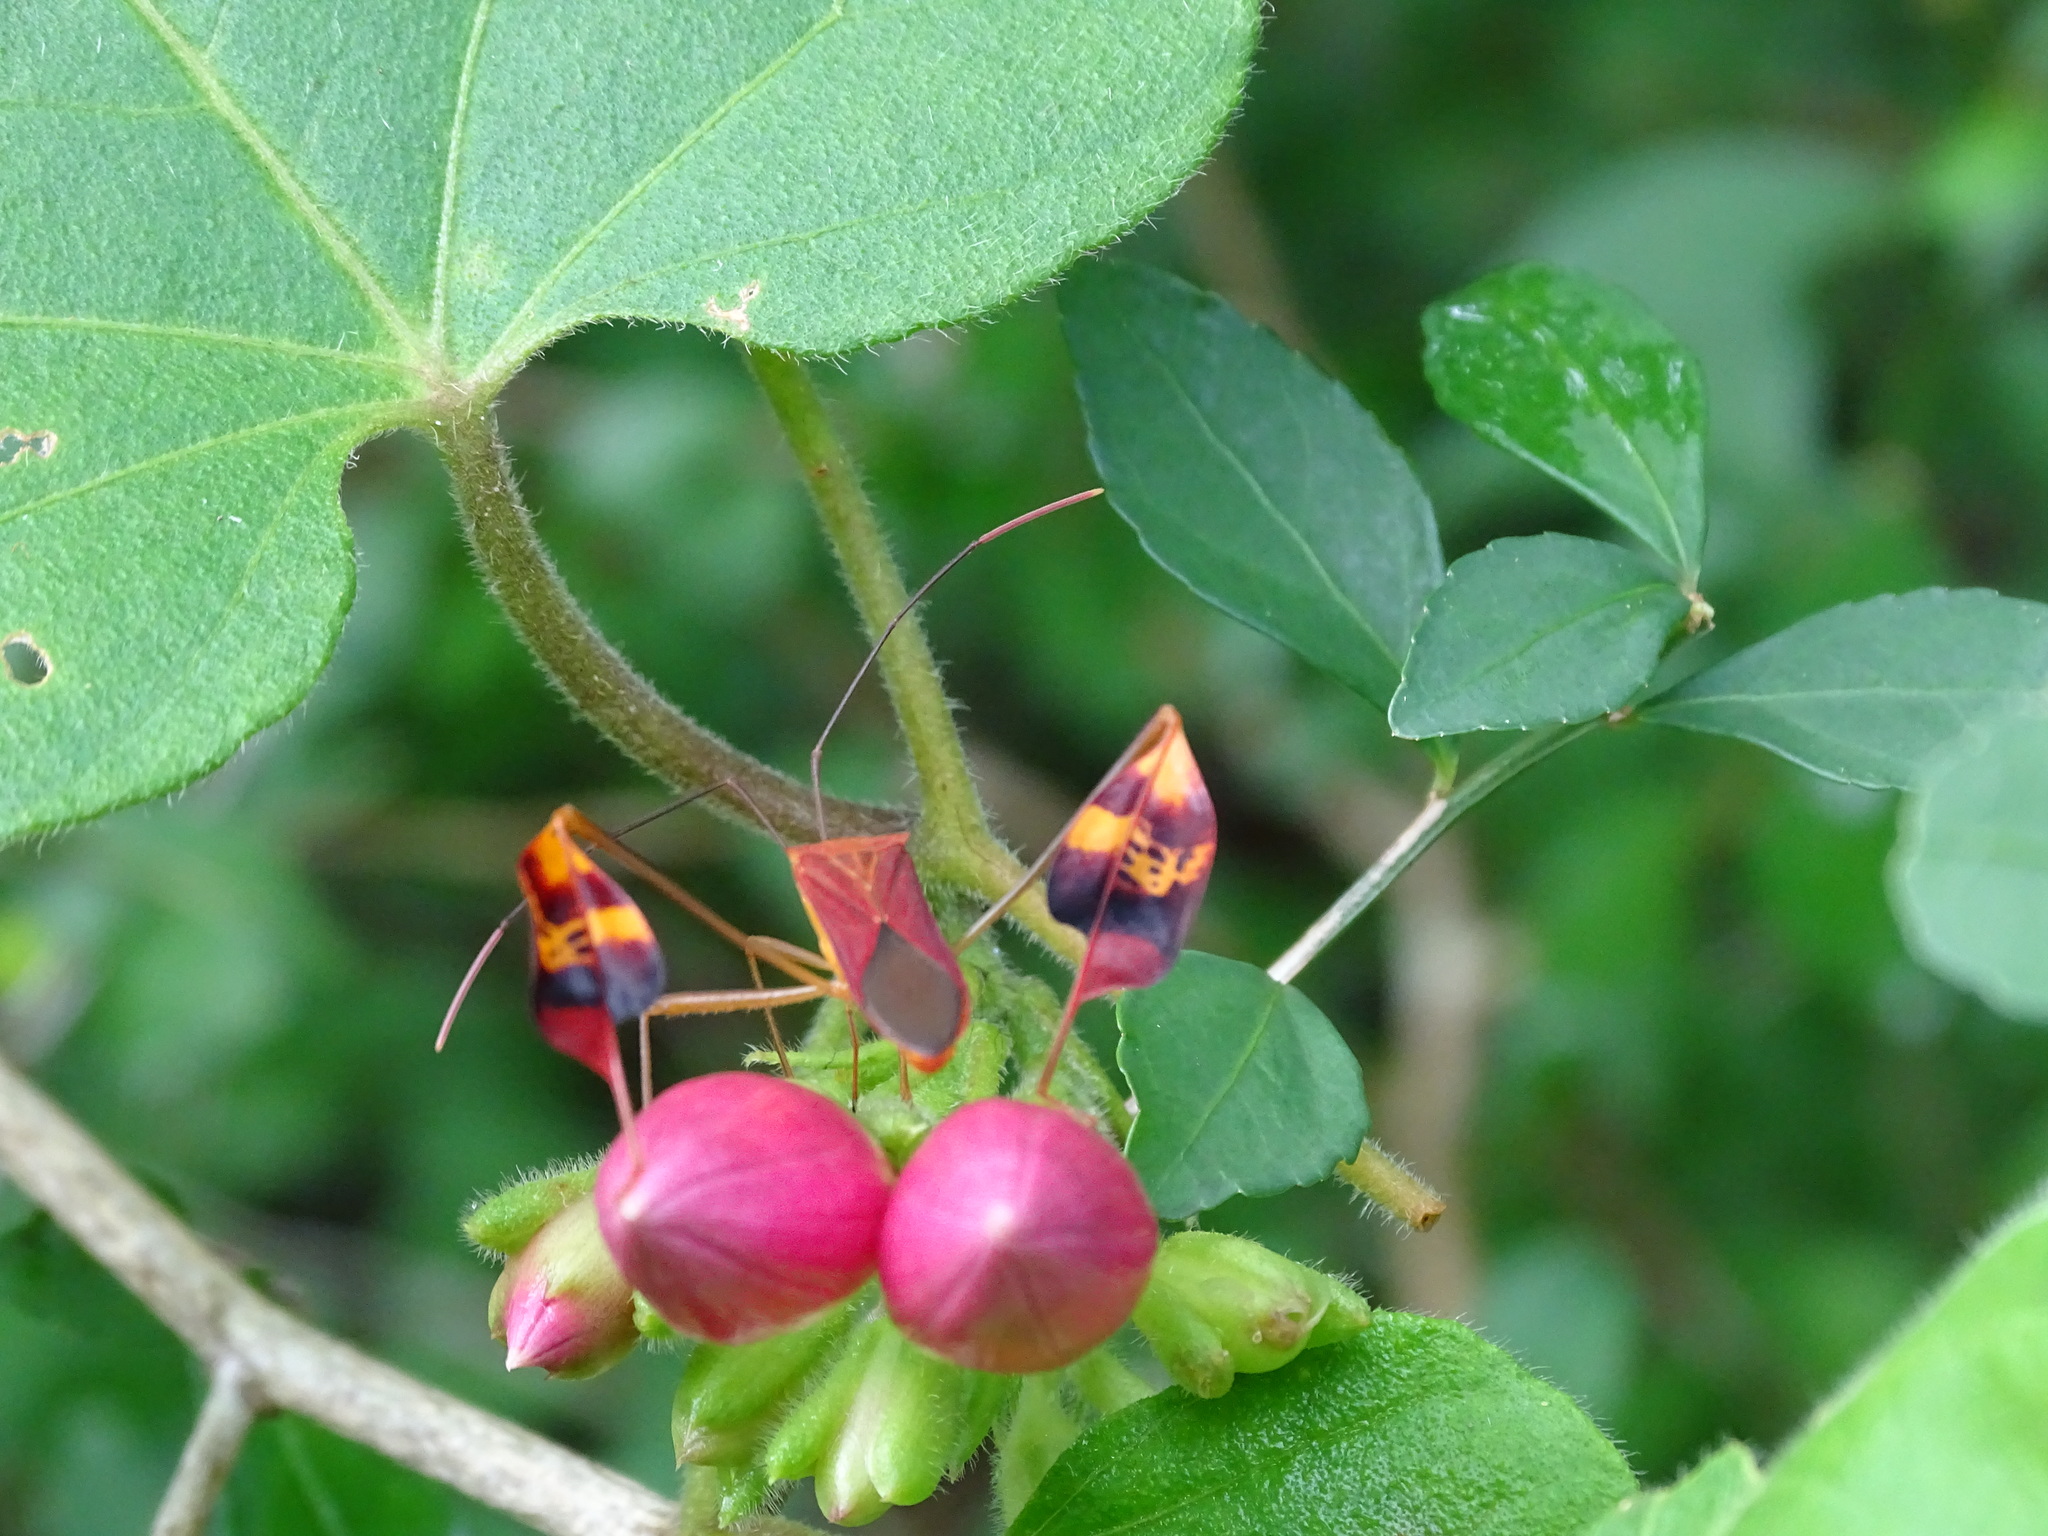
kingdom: Plantae
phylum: Tracheophyta
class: Magnoliopsida
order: Solanales
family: Convolvulaceae
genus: Ipomoea
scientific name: Ipomoea peteri
